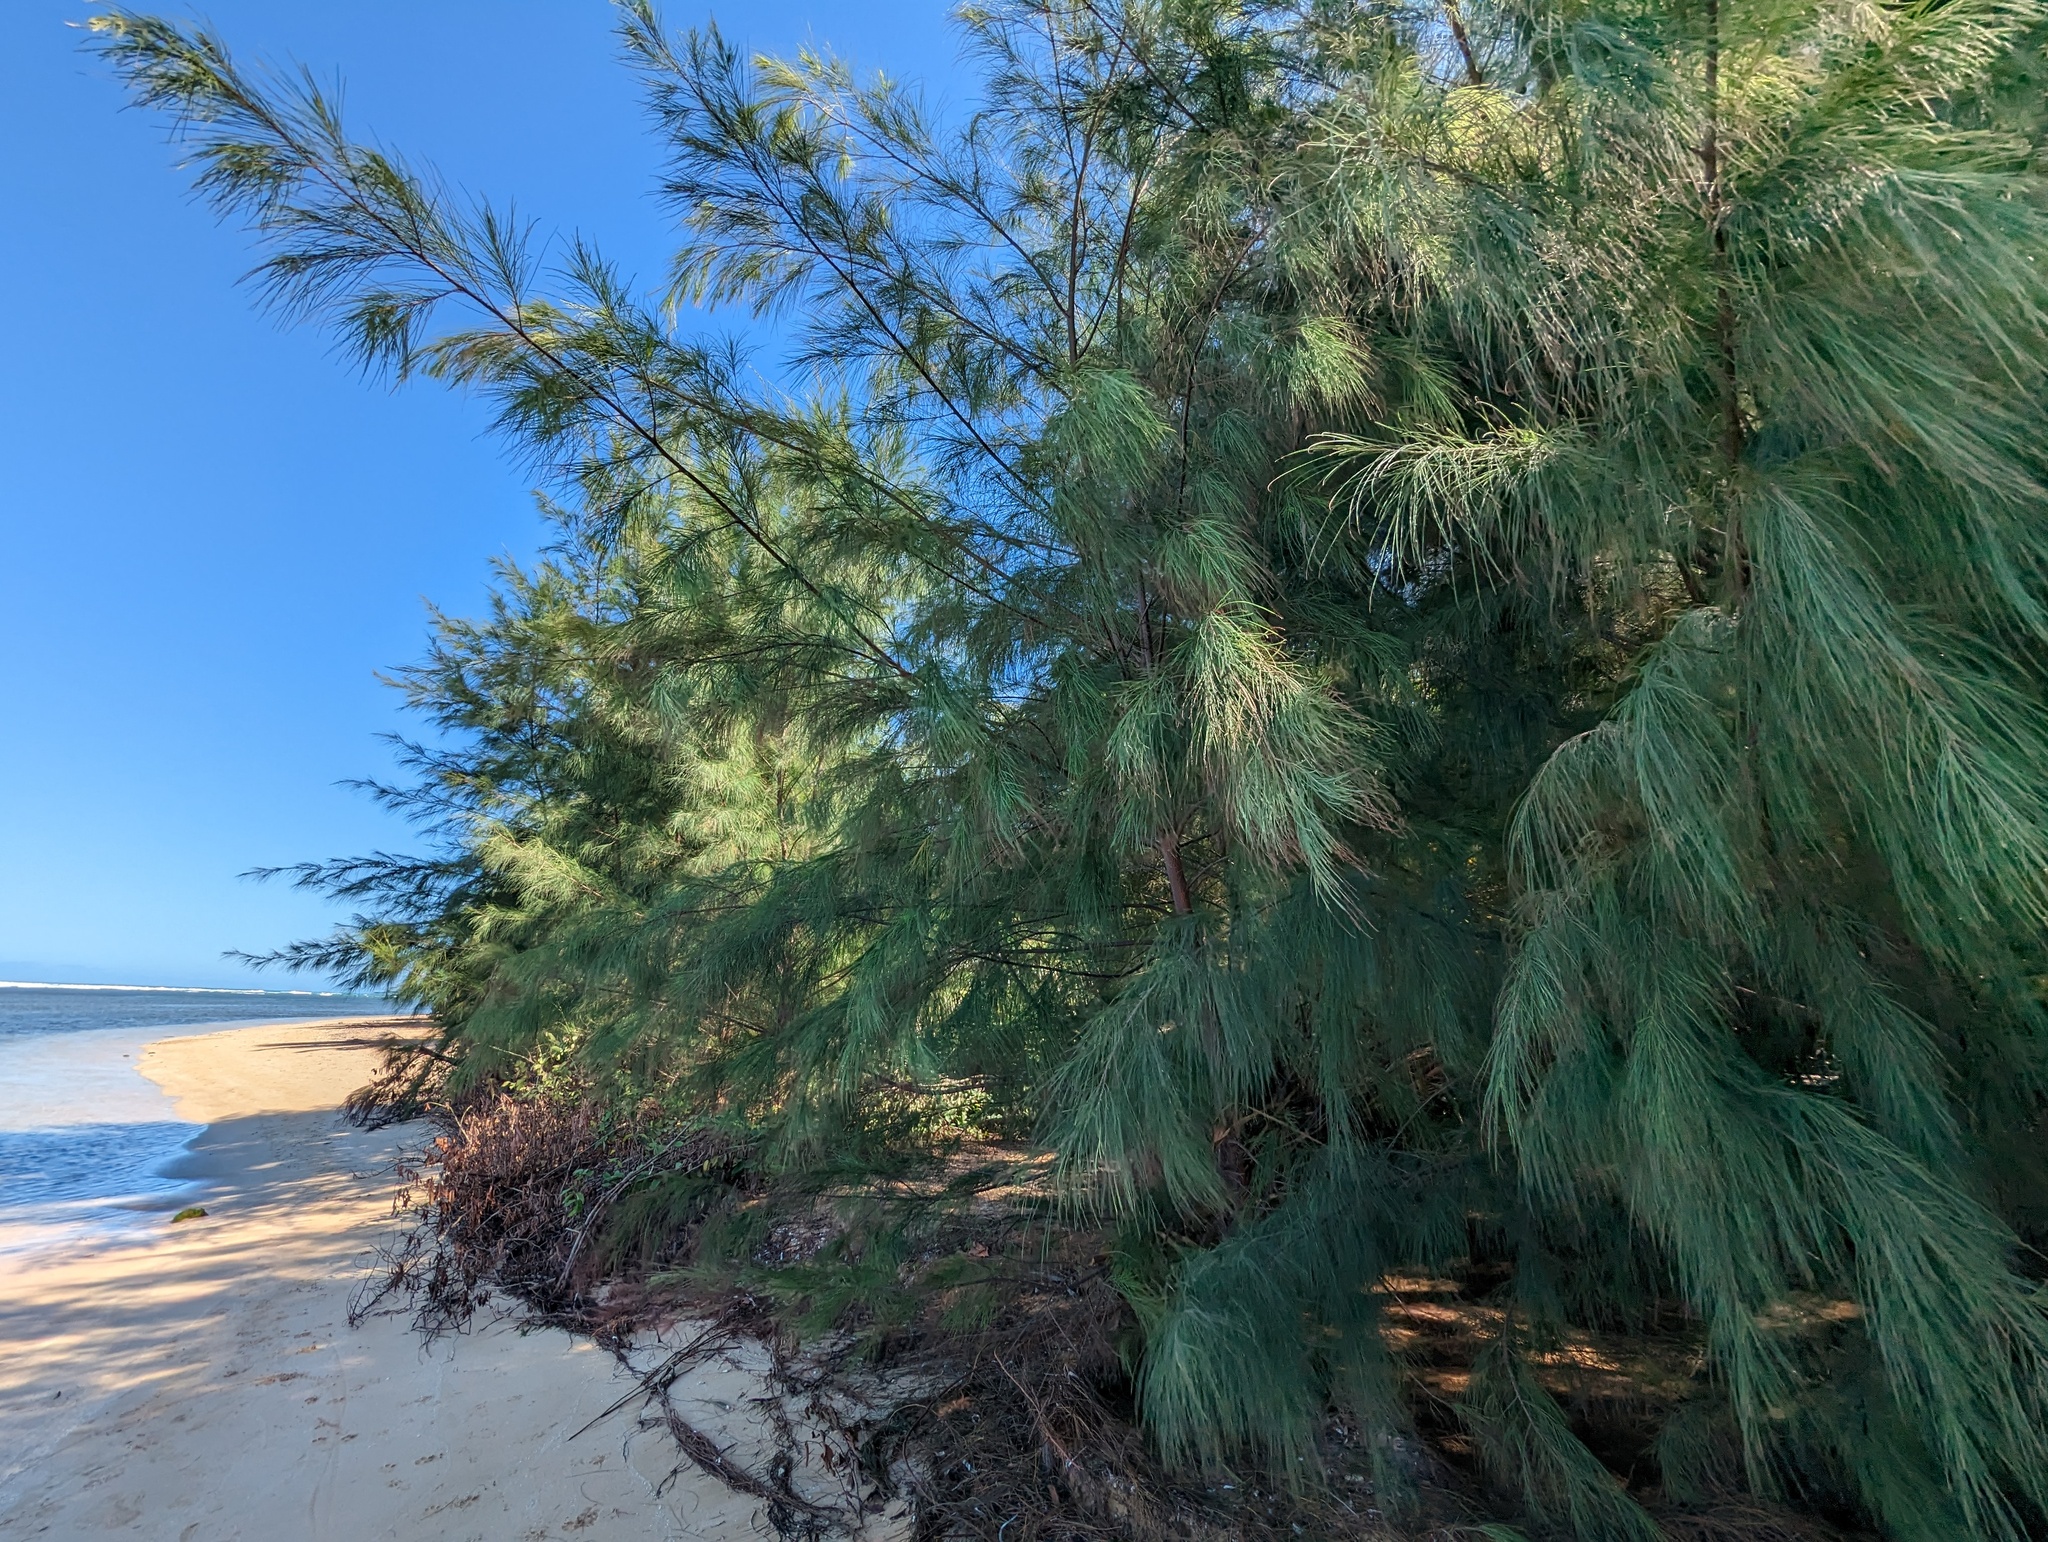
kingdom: Plantae
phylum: Tracheophyta
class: Magnoliopsida
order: Fagales
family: Casuarinaceae
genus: Casuarina
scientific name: Casuarina equisetifolia
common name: Beach sheoak
